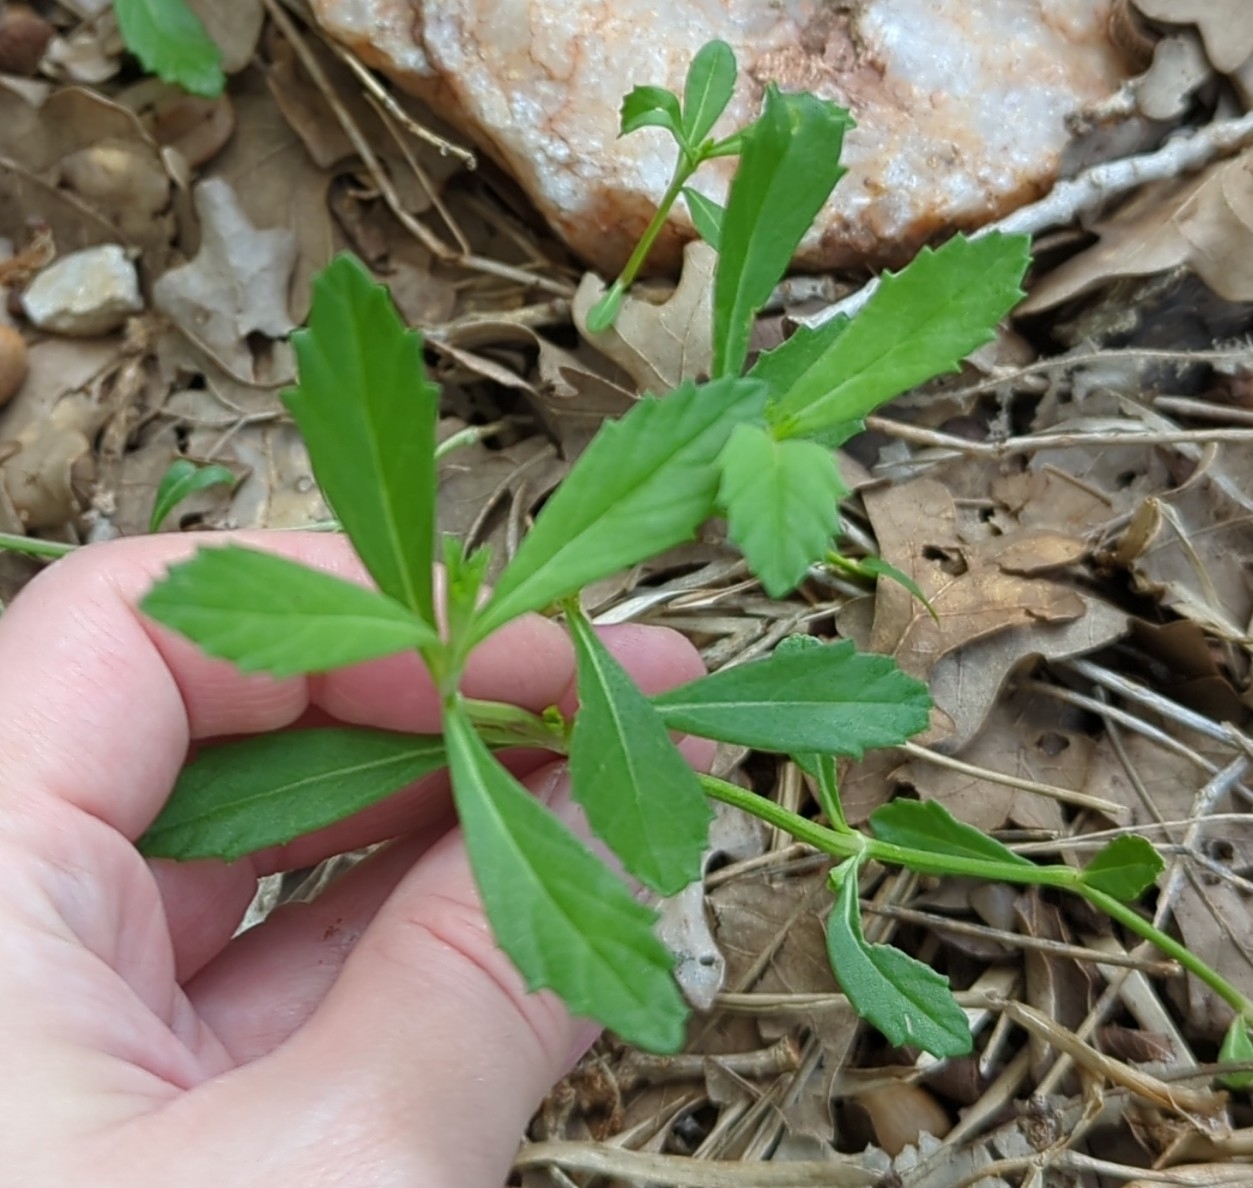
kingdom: Plantae
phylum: Tracheophyta
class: Magnoliopsida
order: Lamiales
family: Verbenaceae
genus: Phyla
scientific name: Phyla nodiflora
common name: Frogfruit
